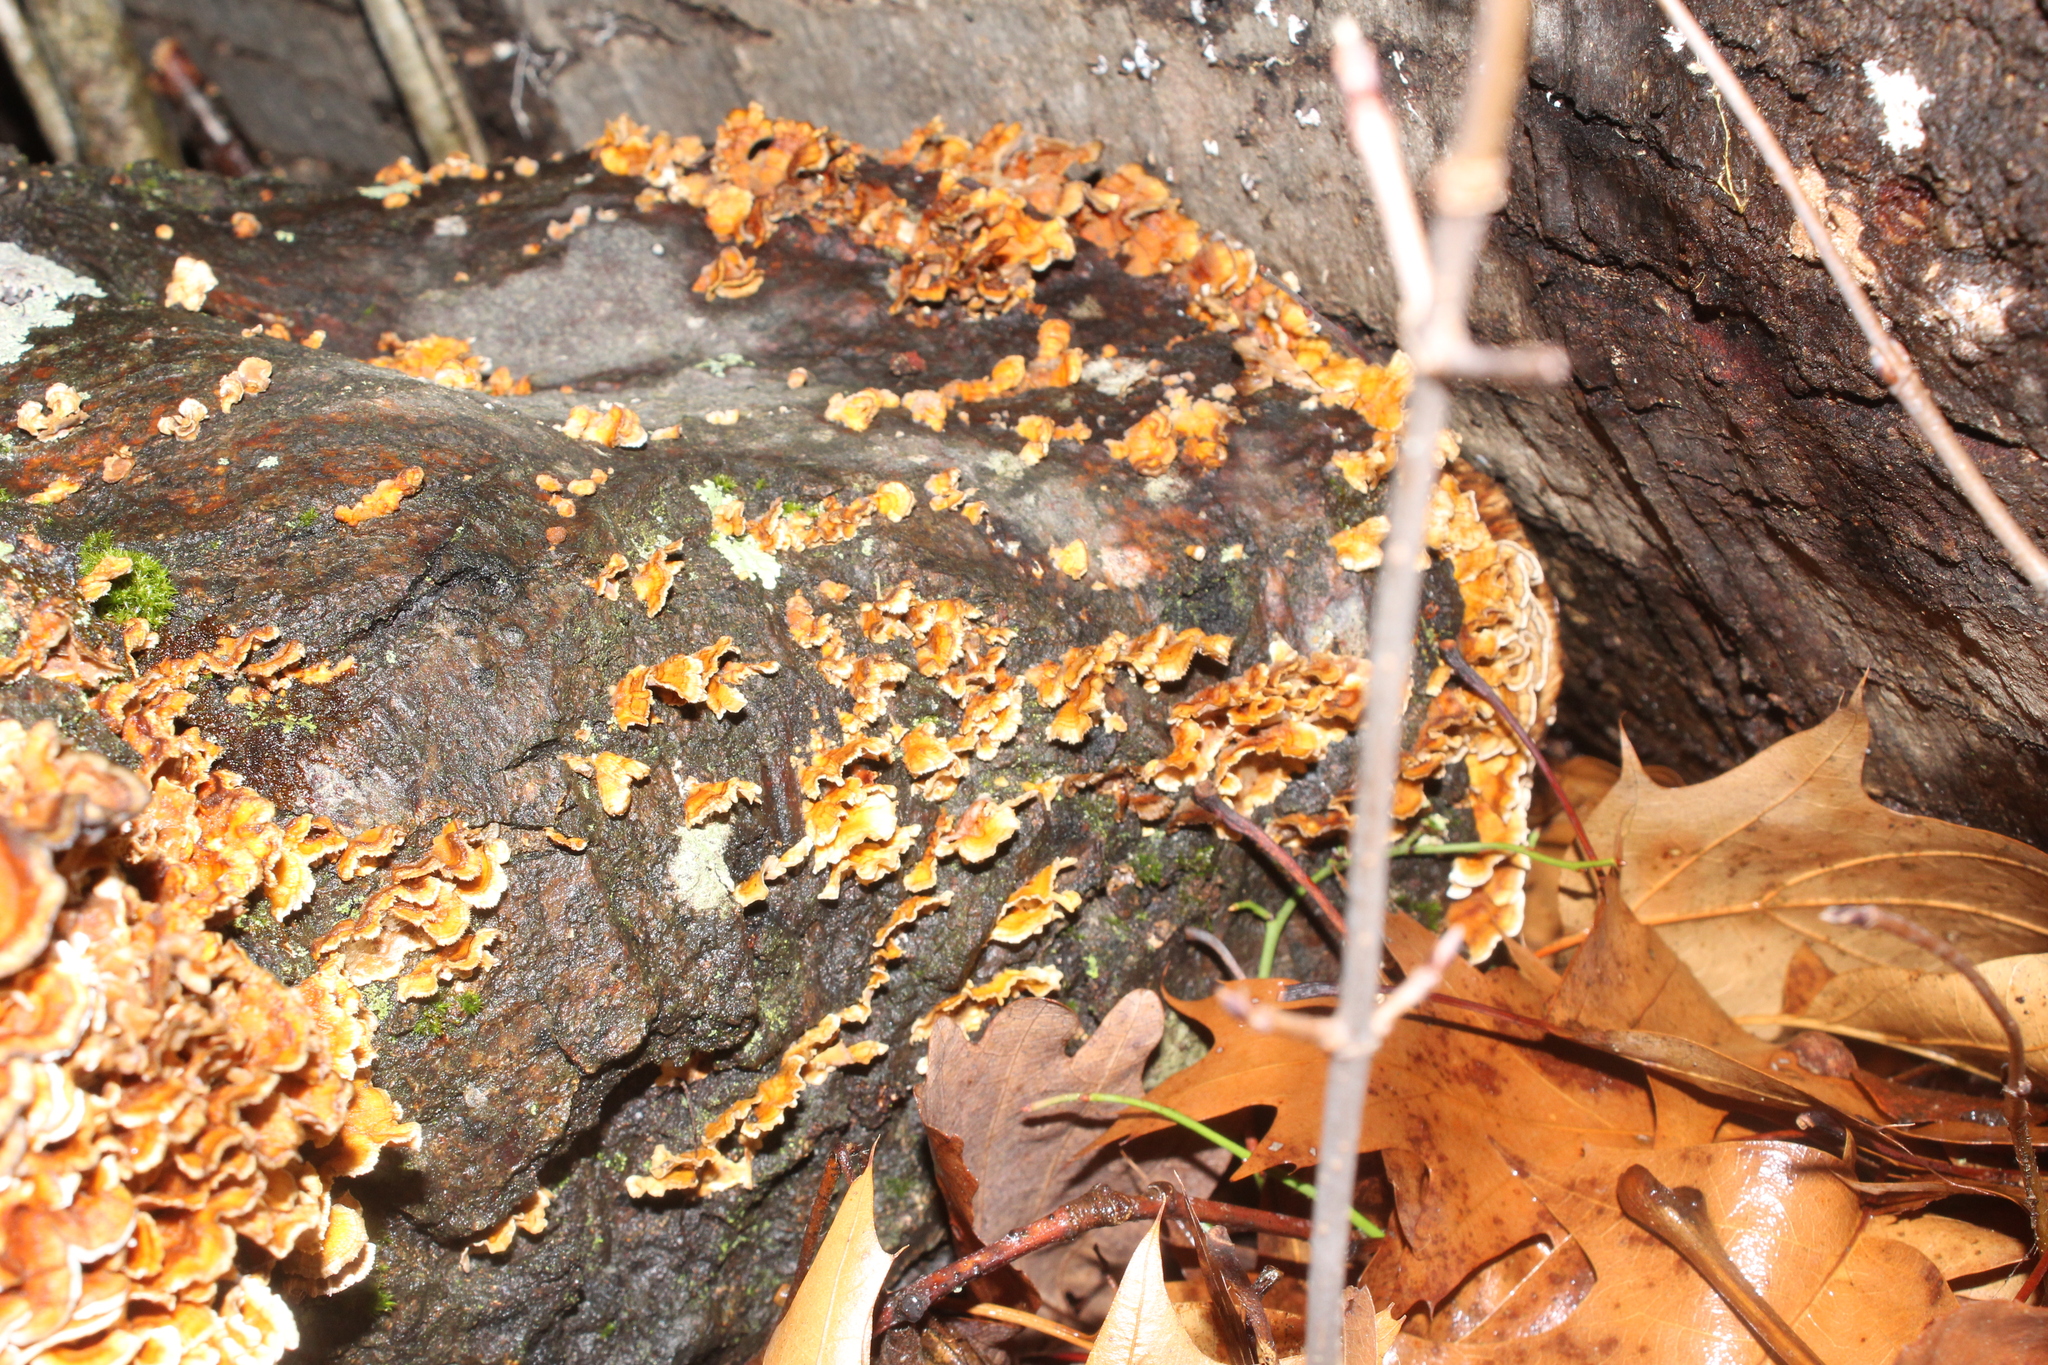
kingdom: Fungi
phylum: Basidiomycota
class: Agaricomycetes
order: Russulales
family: Stereaceae
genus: Stereum
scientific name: Stereum complicatum
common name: Crowded parchment
